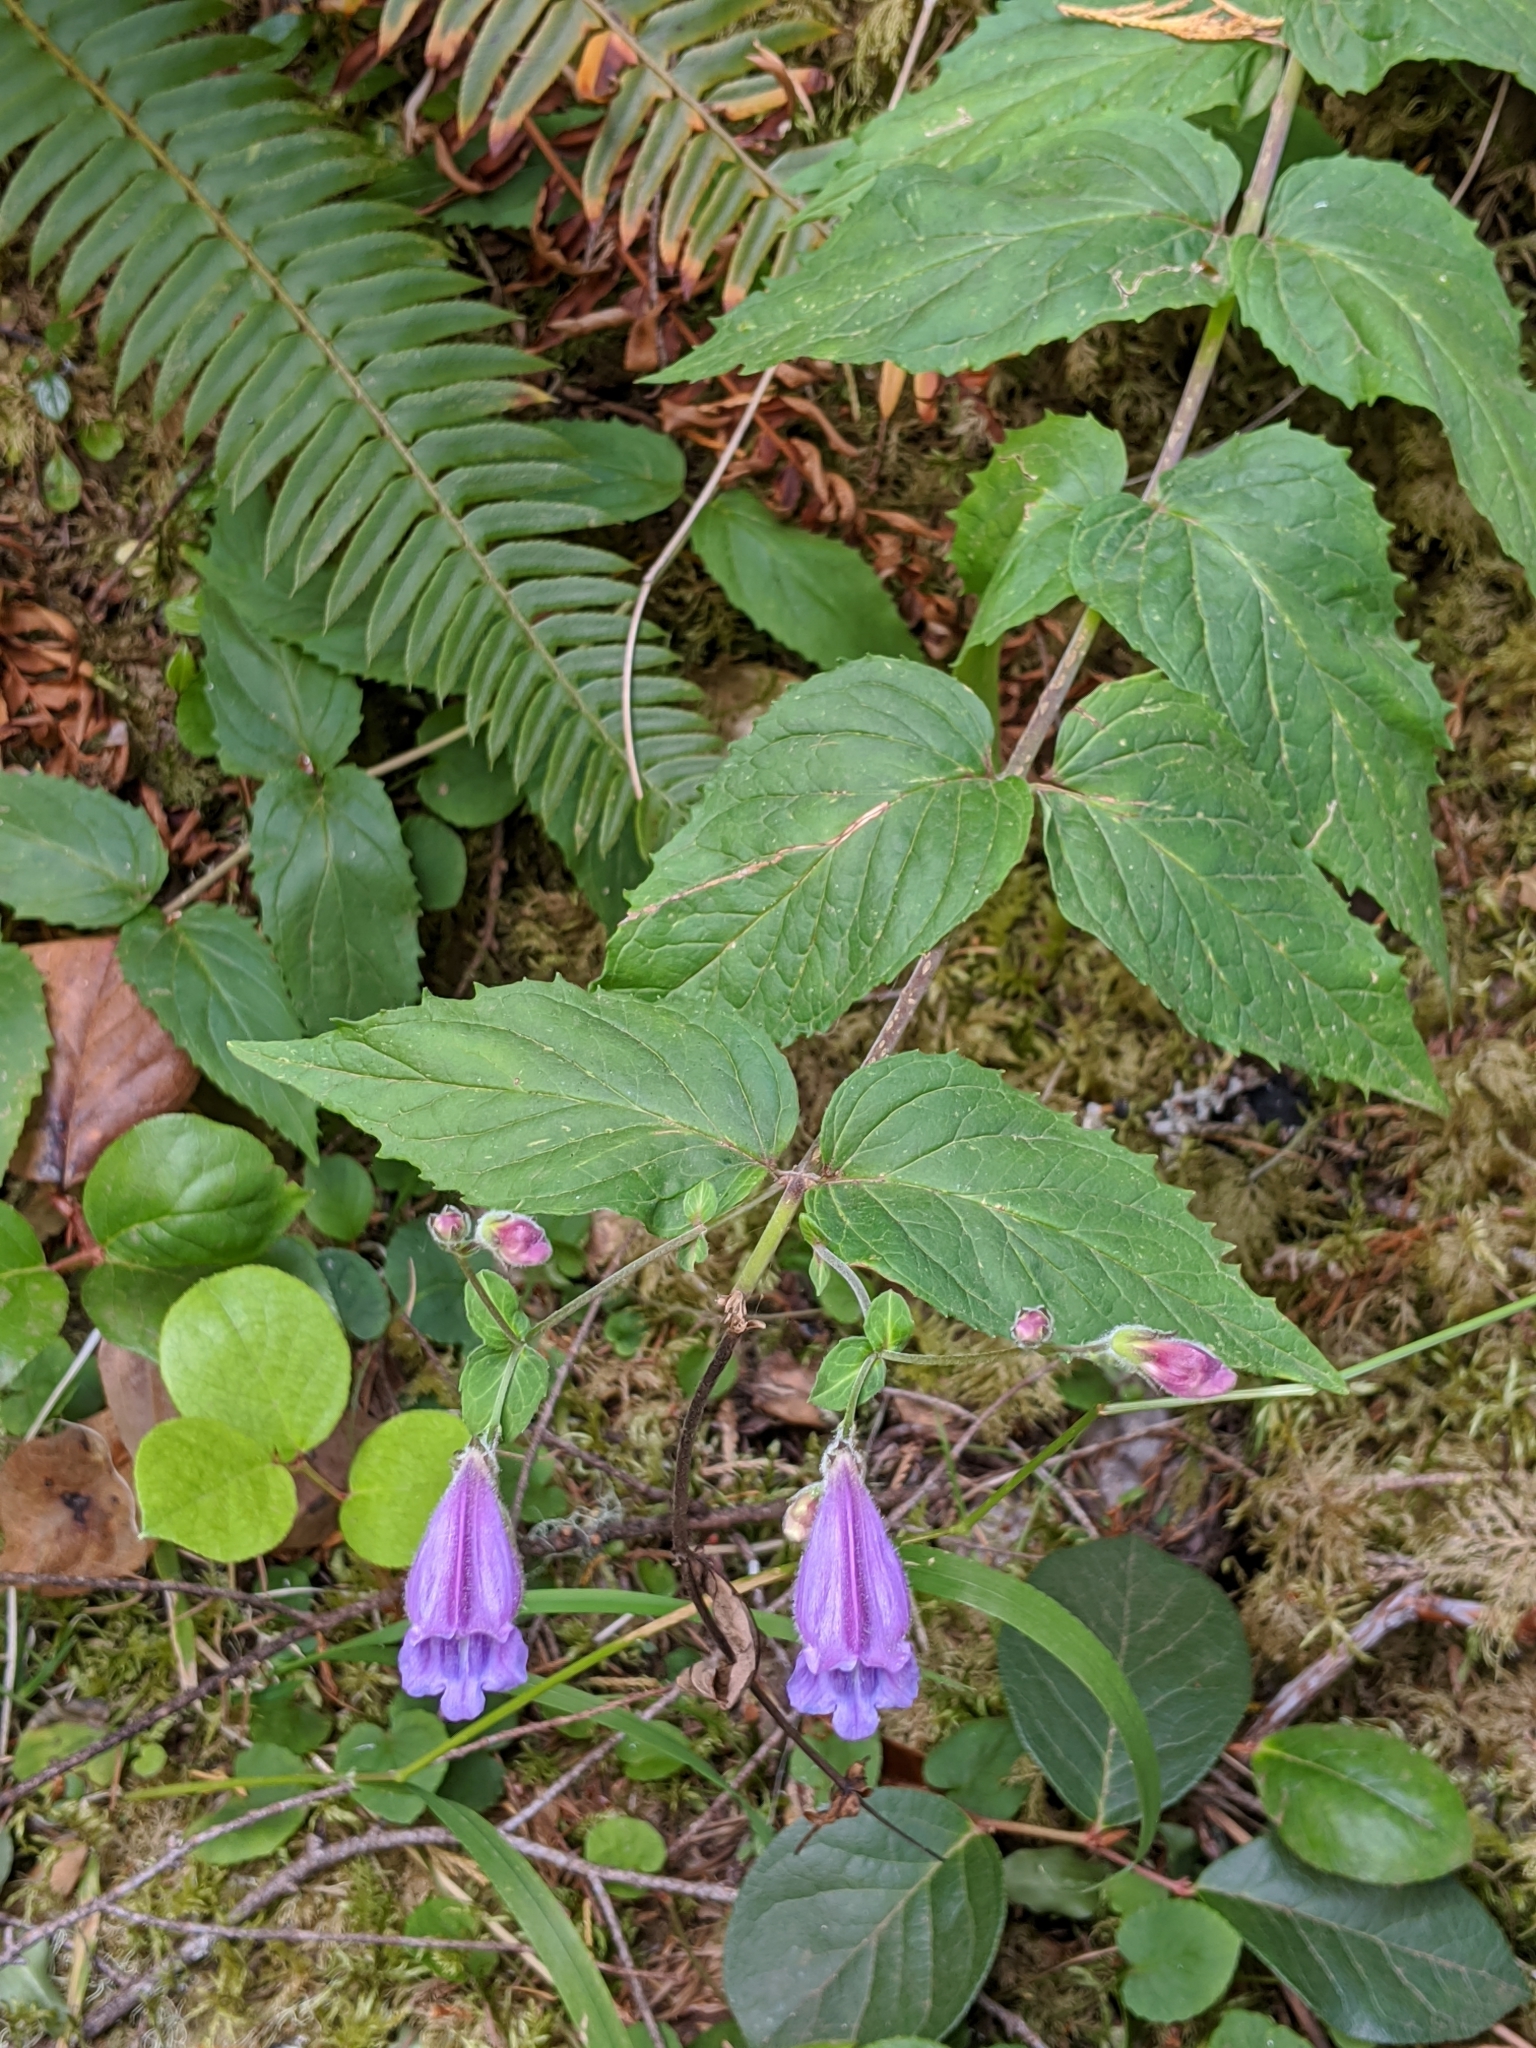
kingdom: Plantae
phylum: Tracheophyta
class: Magnoliopsida
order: Lamiales
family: Plantaginaceae
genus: Nothochelone
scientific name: Nothochelone nemorosa
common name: Woodland beardtongue
